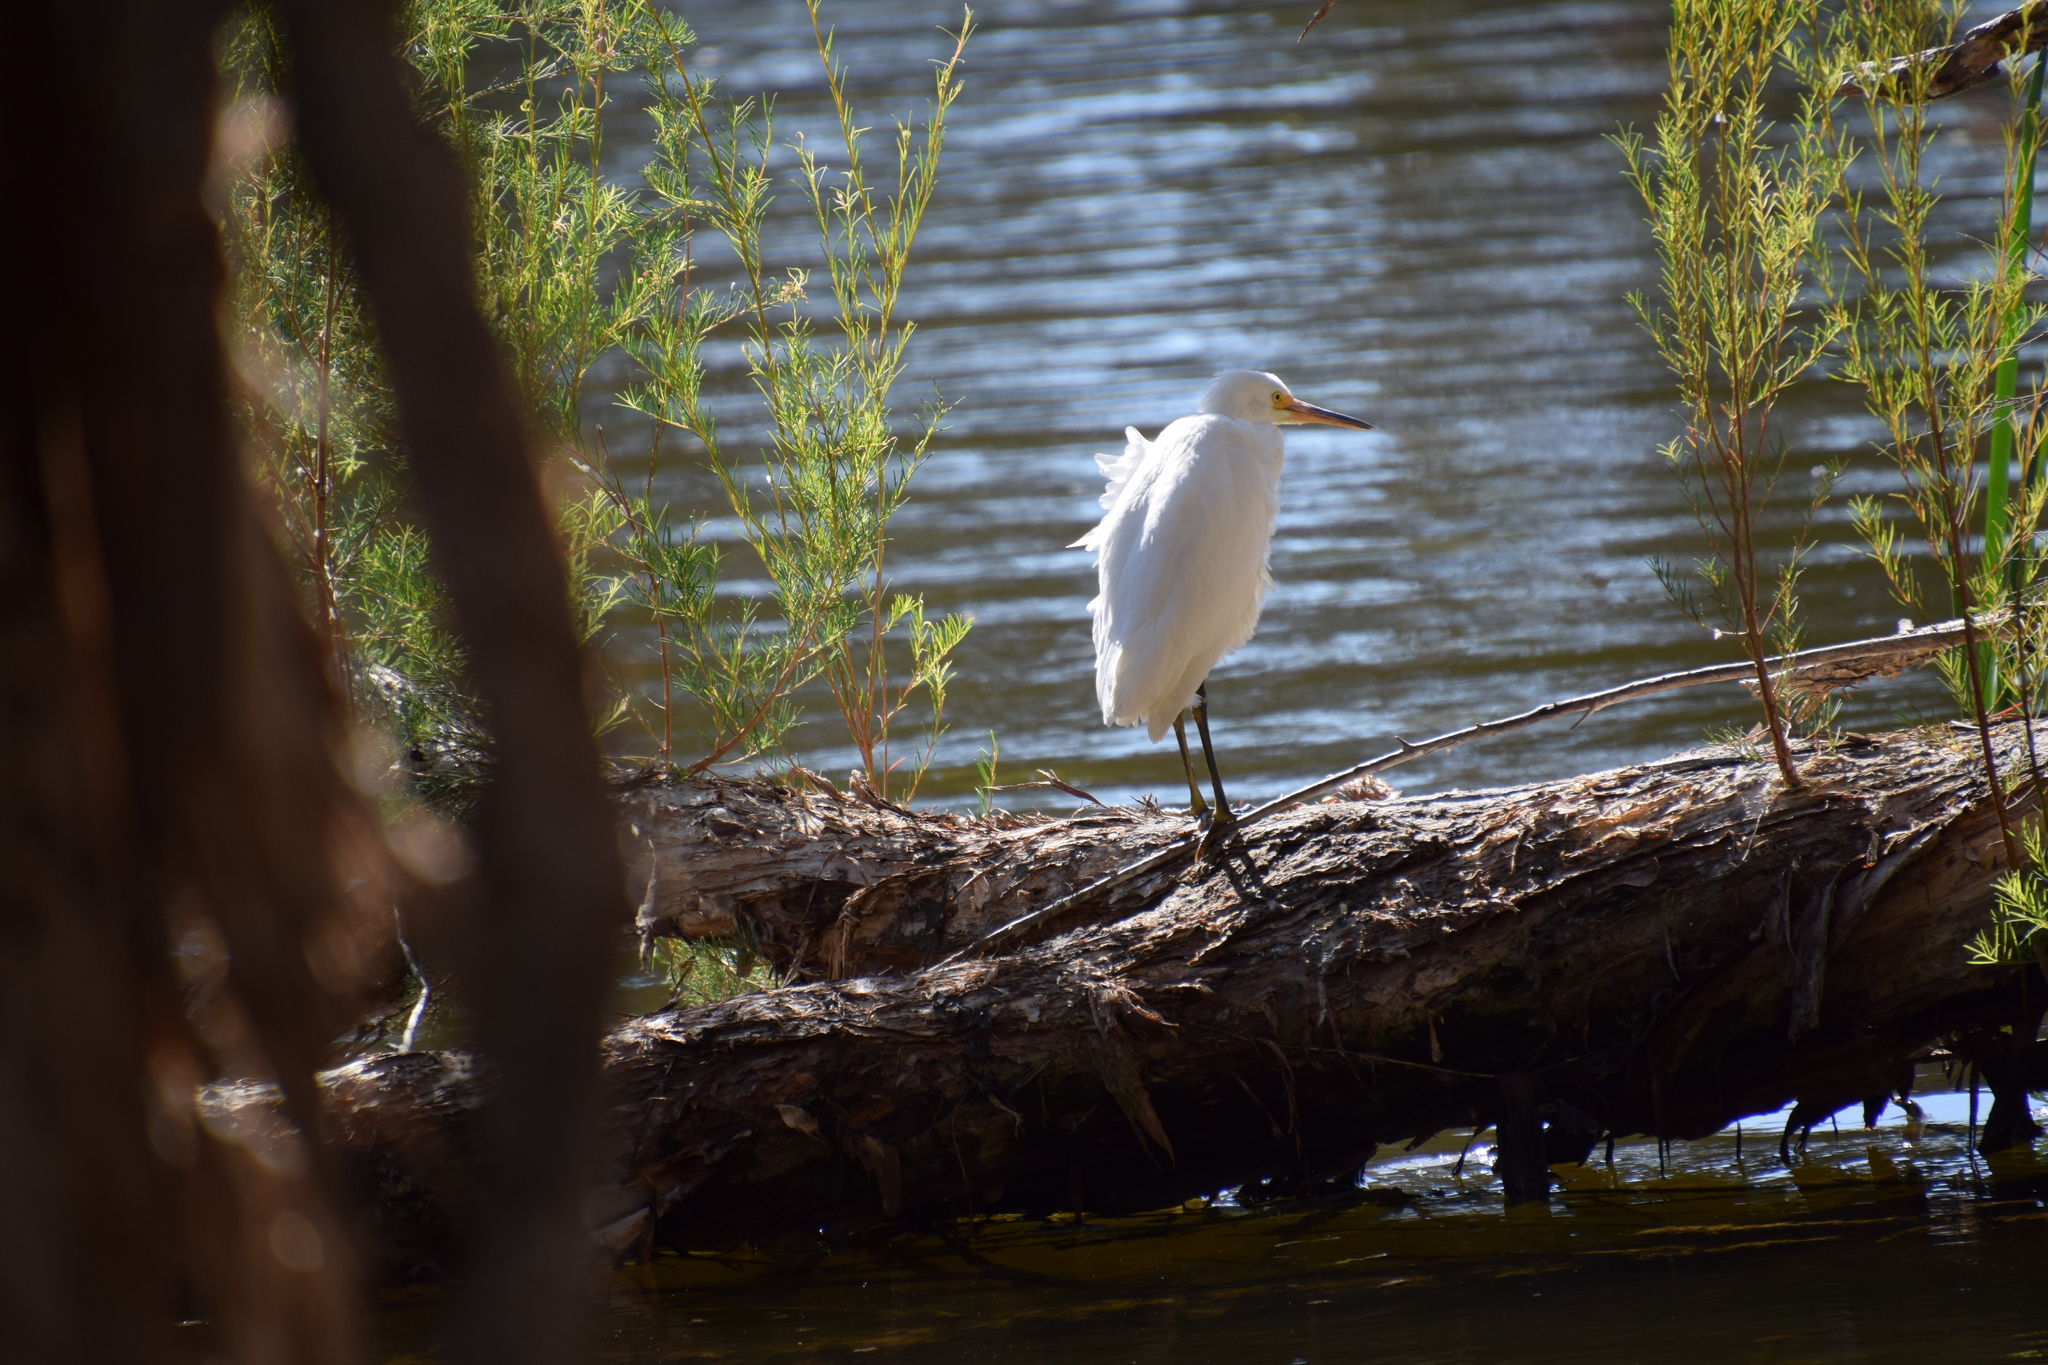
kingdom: Animalia
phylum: Chordata
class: Aves
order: Pelecaniformes
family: Ardeidae
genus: Egretta
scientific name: Egretta garzetta
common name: Little egret
